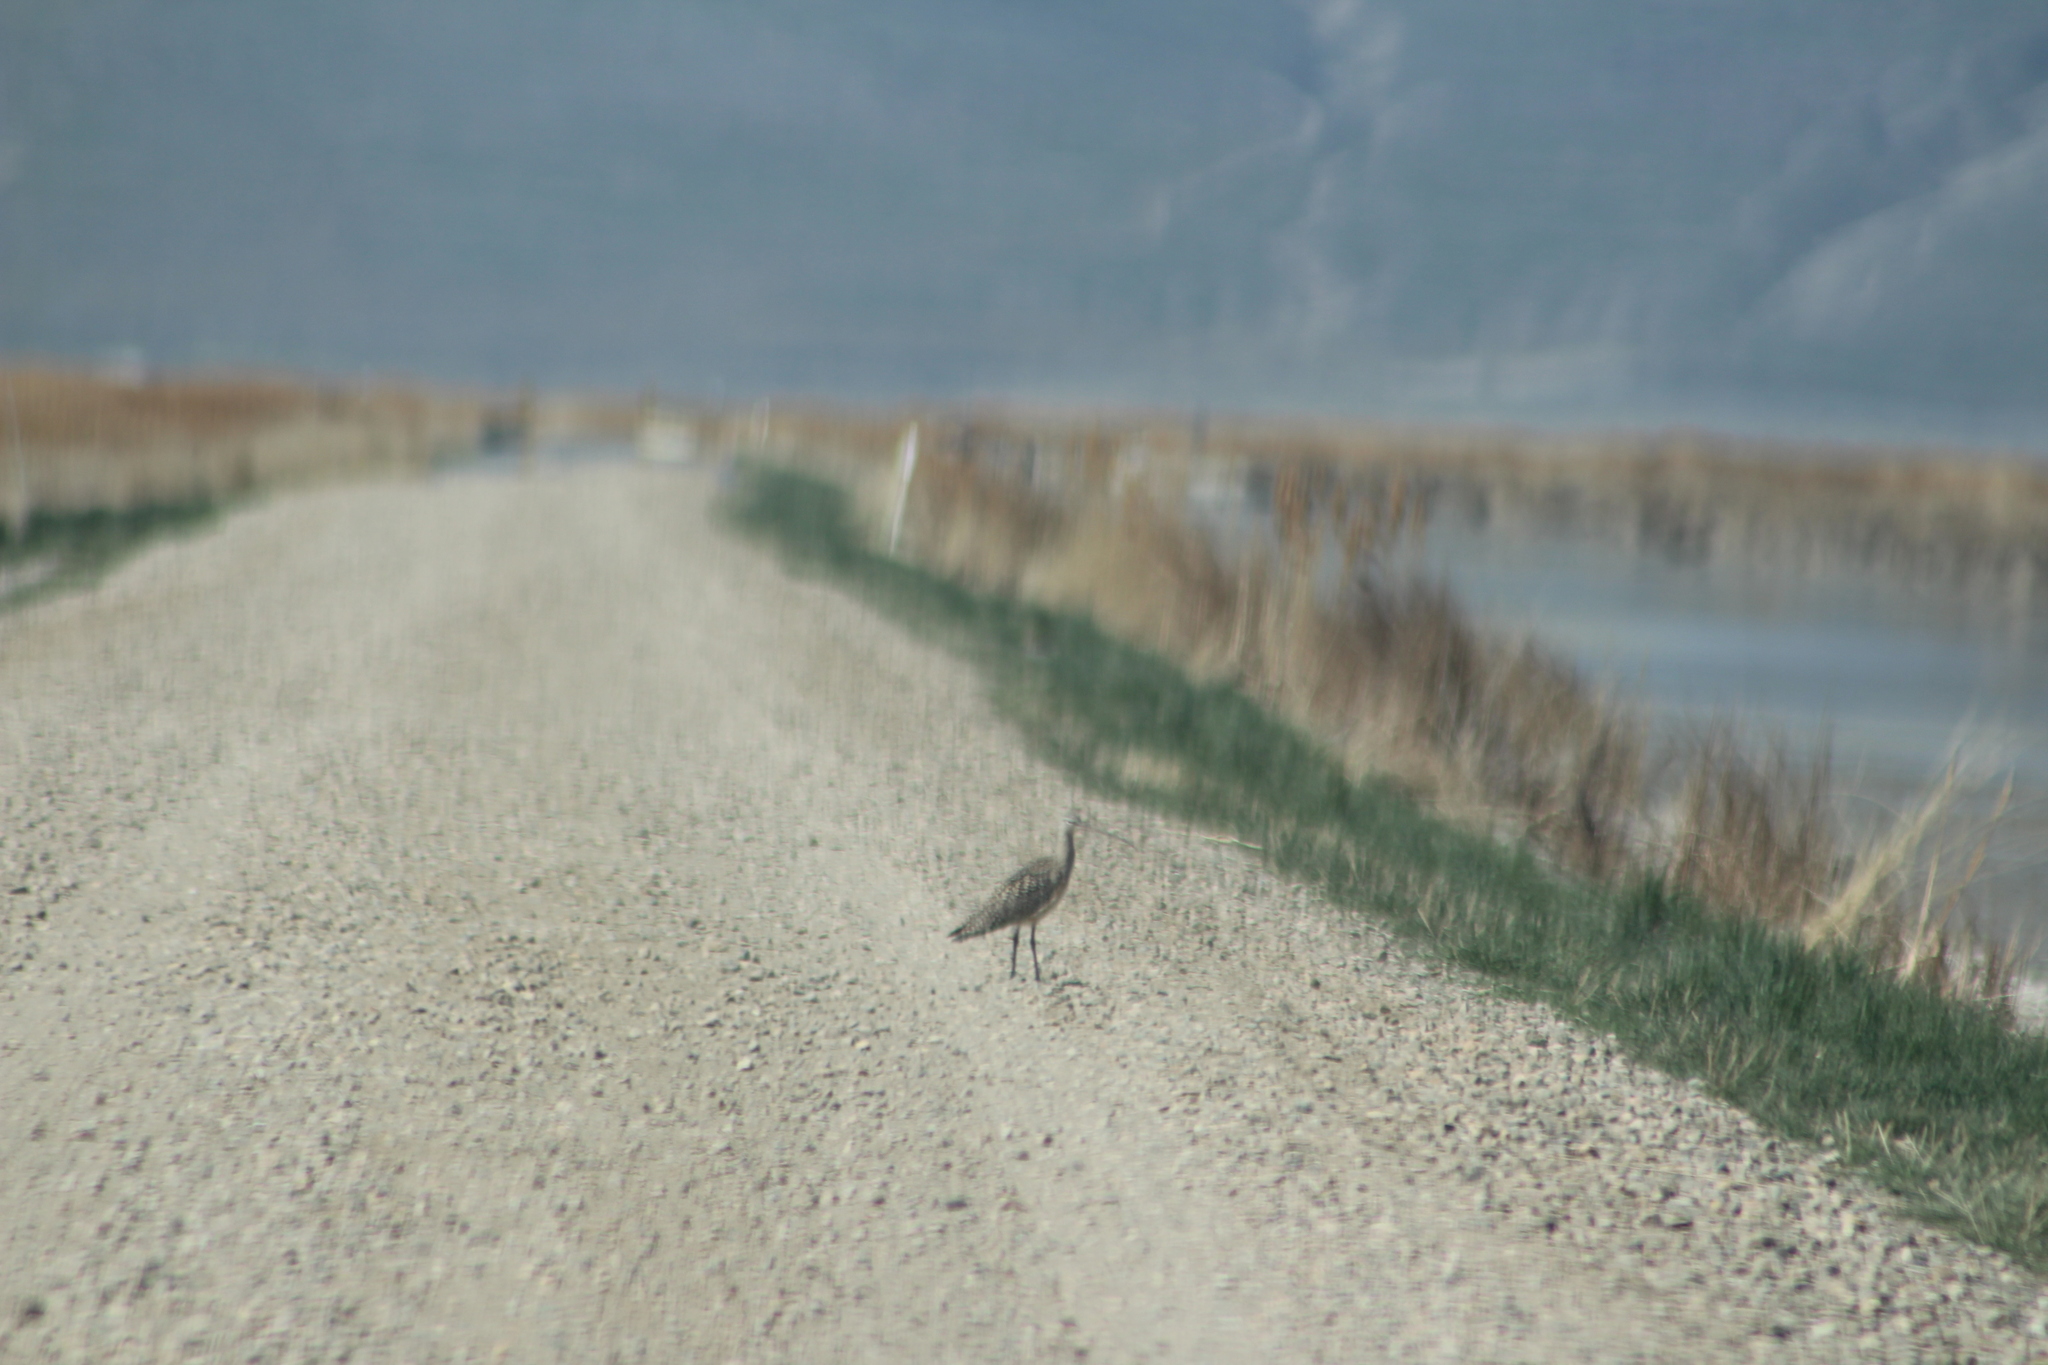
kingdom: Animalia
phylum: Chordata
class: Aves
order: Charadriiformes
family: Scolopacidae
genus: Numenius
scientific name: Numenius americanus
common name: Long-billed curlew
